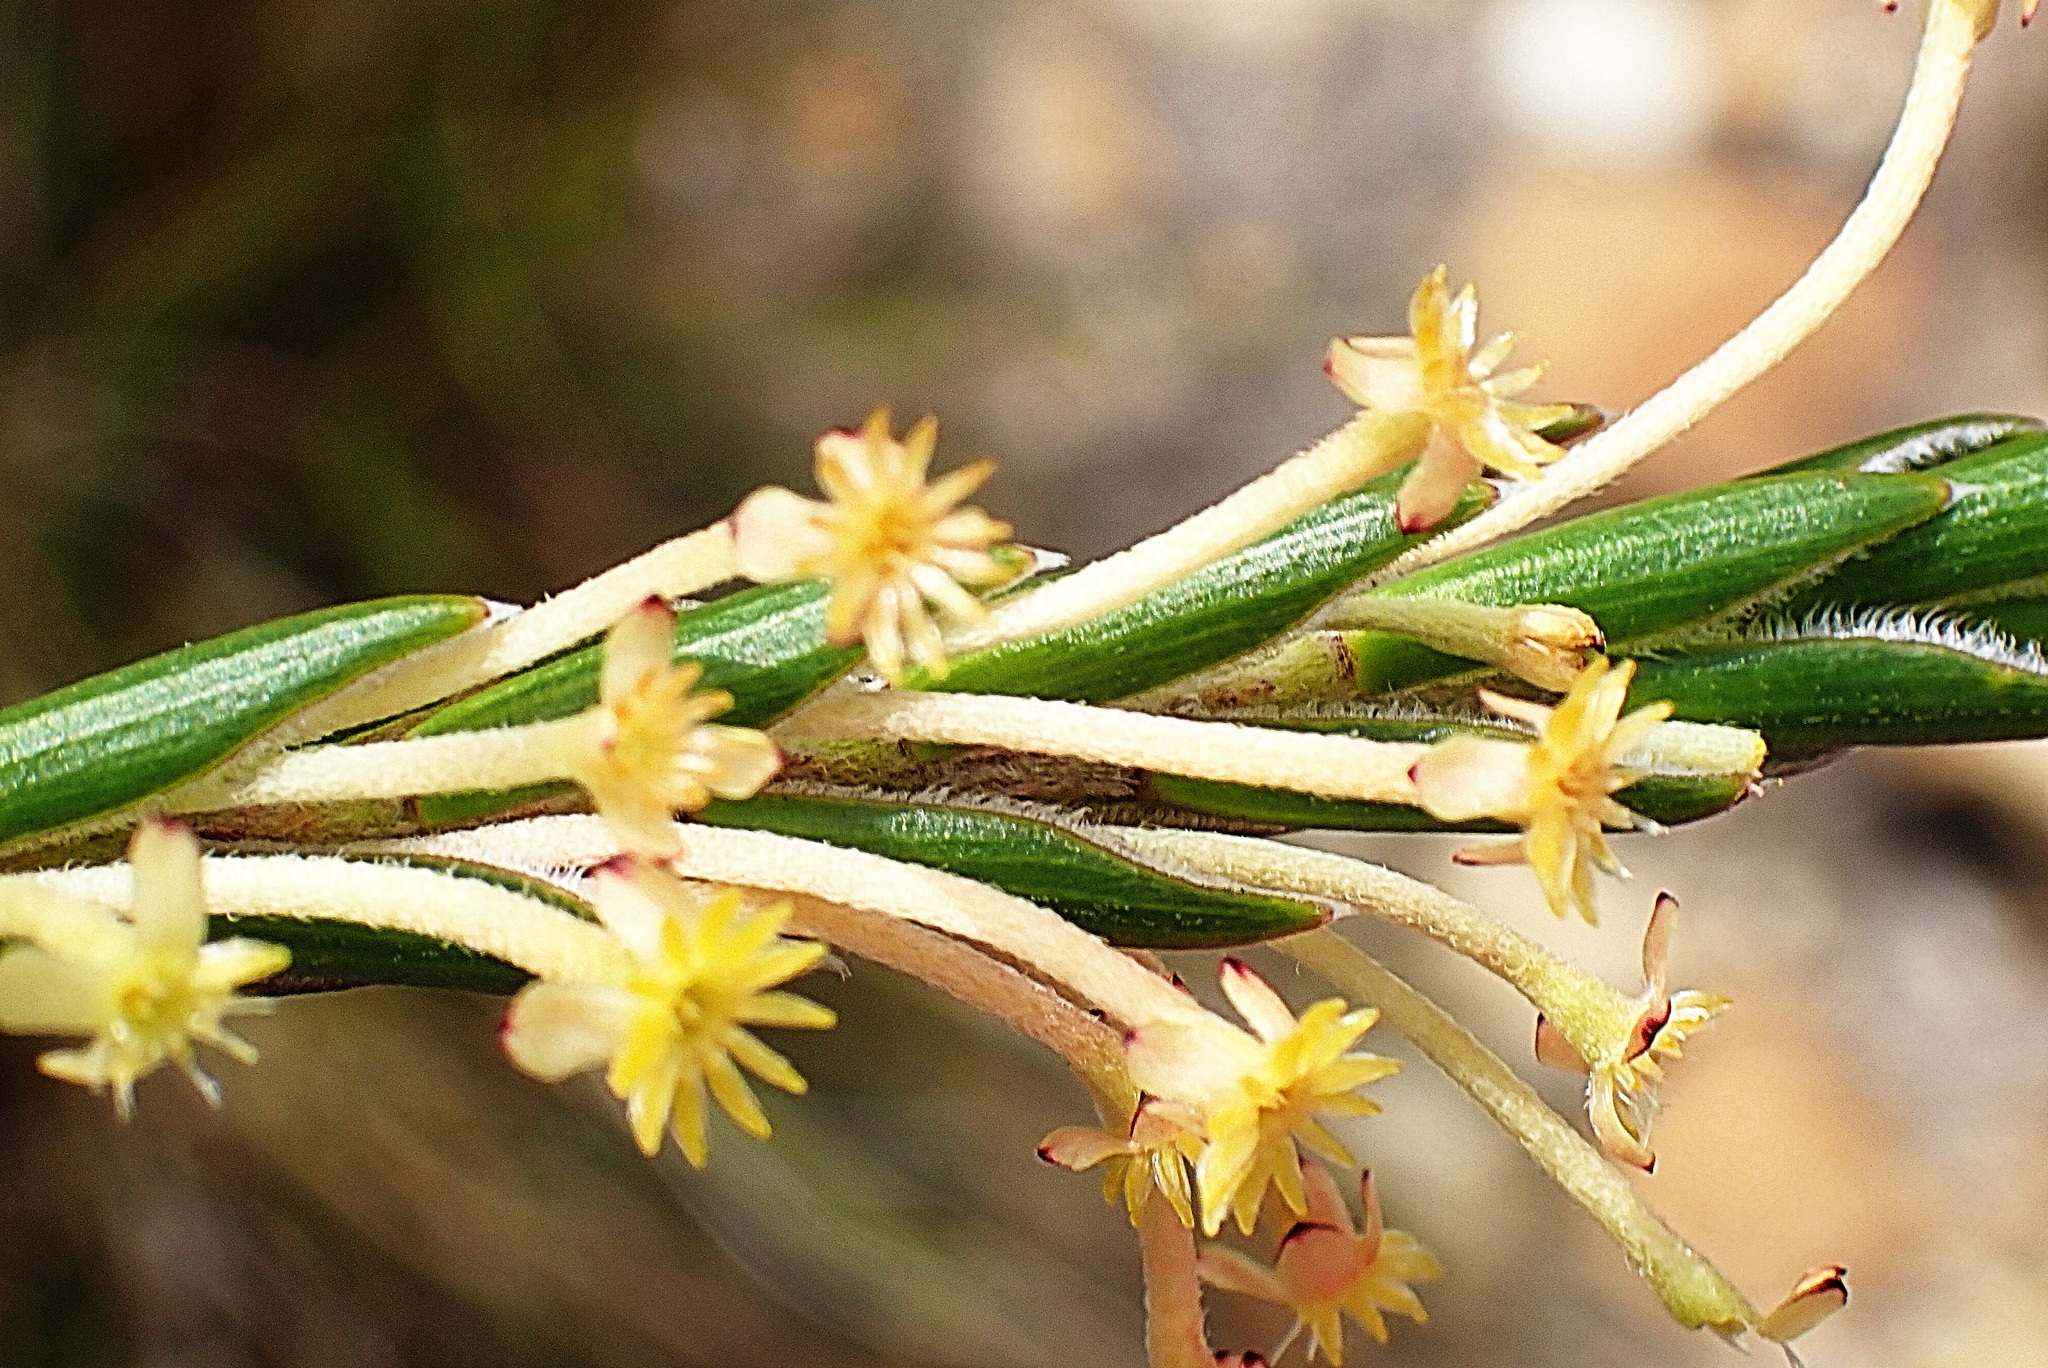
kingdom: Plantae
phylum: Tracheophyta
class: Magnoliopsida
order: Malvales
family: Thymelaeaceae
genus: Struthiola
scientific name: Struthiola garciana
